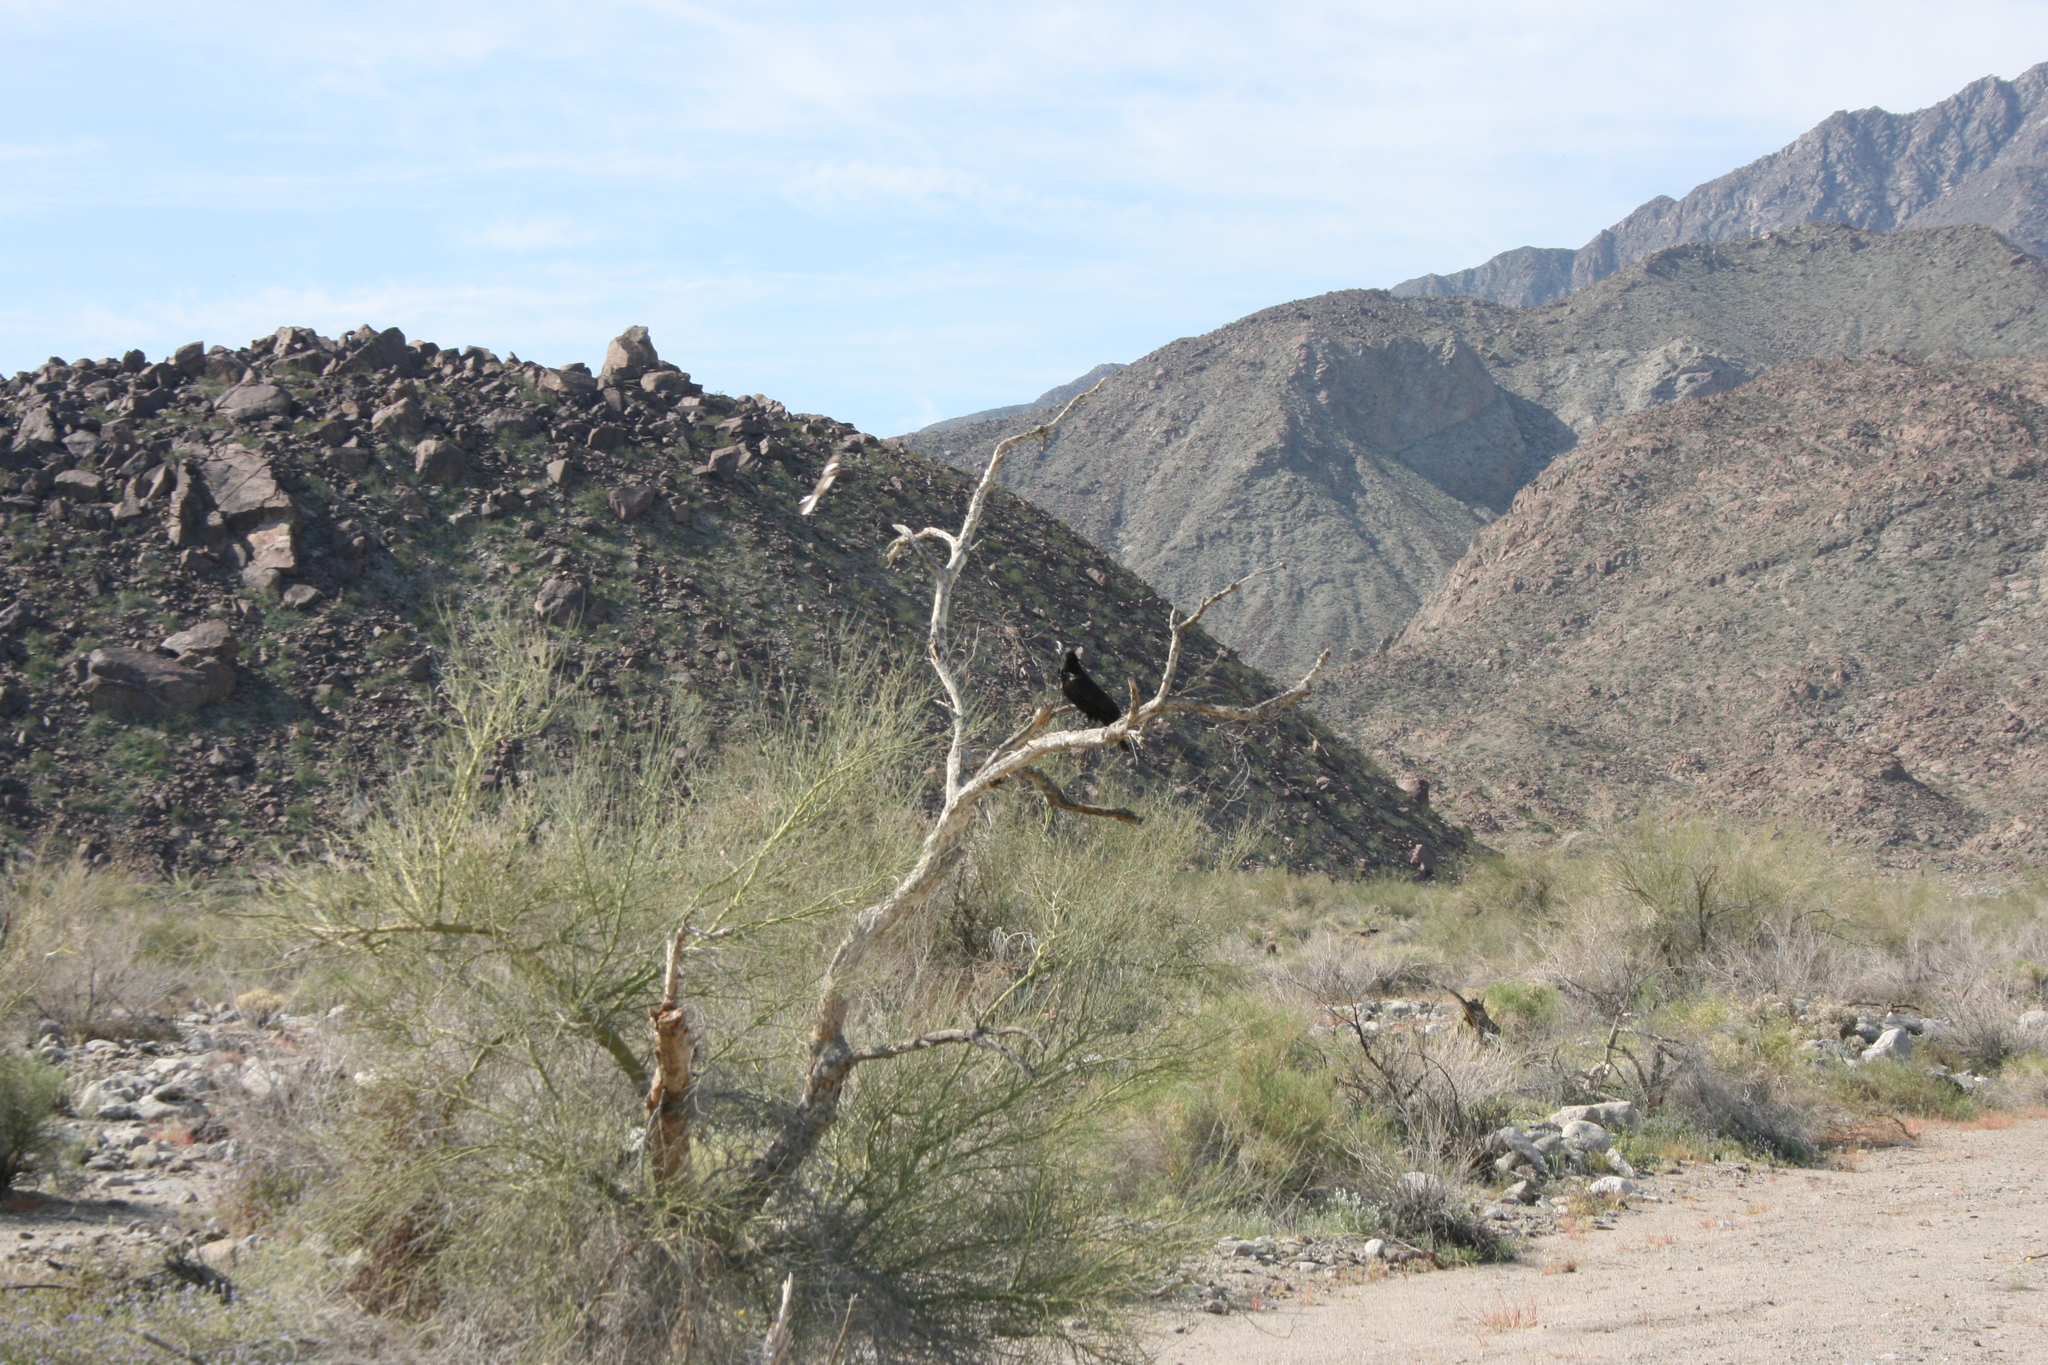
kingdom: Animalia
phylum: Chordata
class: Aves
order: Passeriformes
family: Corvidae
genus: Corvus
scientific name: Corvus corax
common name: Common raven
